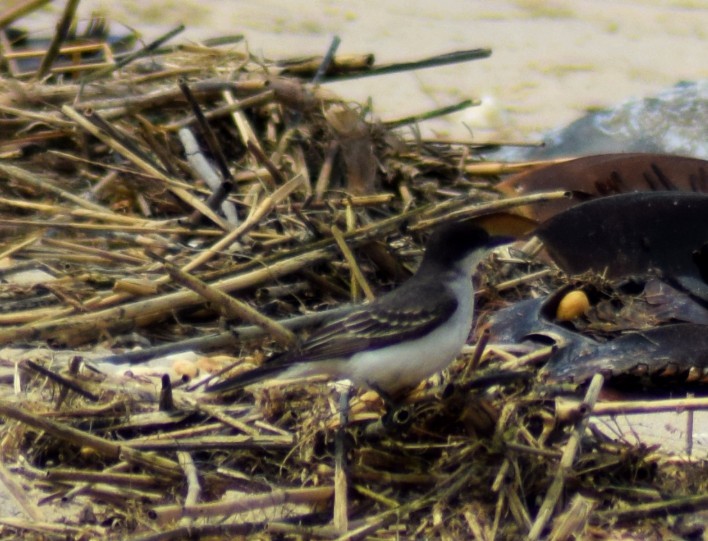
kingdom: Animalia
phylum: Chordata
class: Aves
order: Passeriformes
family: Tyrannidae
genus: Tyrannus
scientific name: Tyrannus tyrannus
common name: Eastern kingbird
